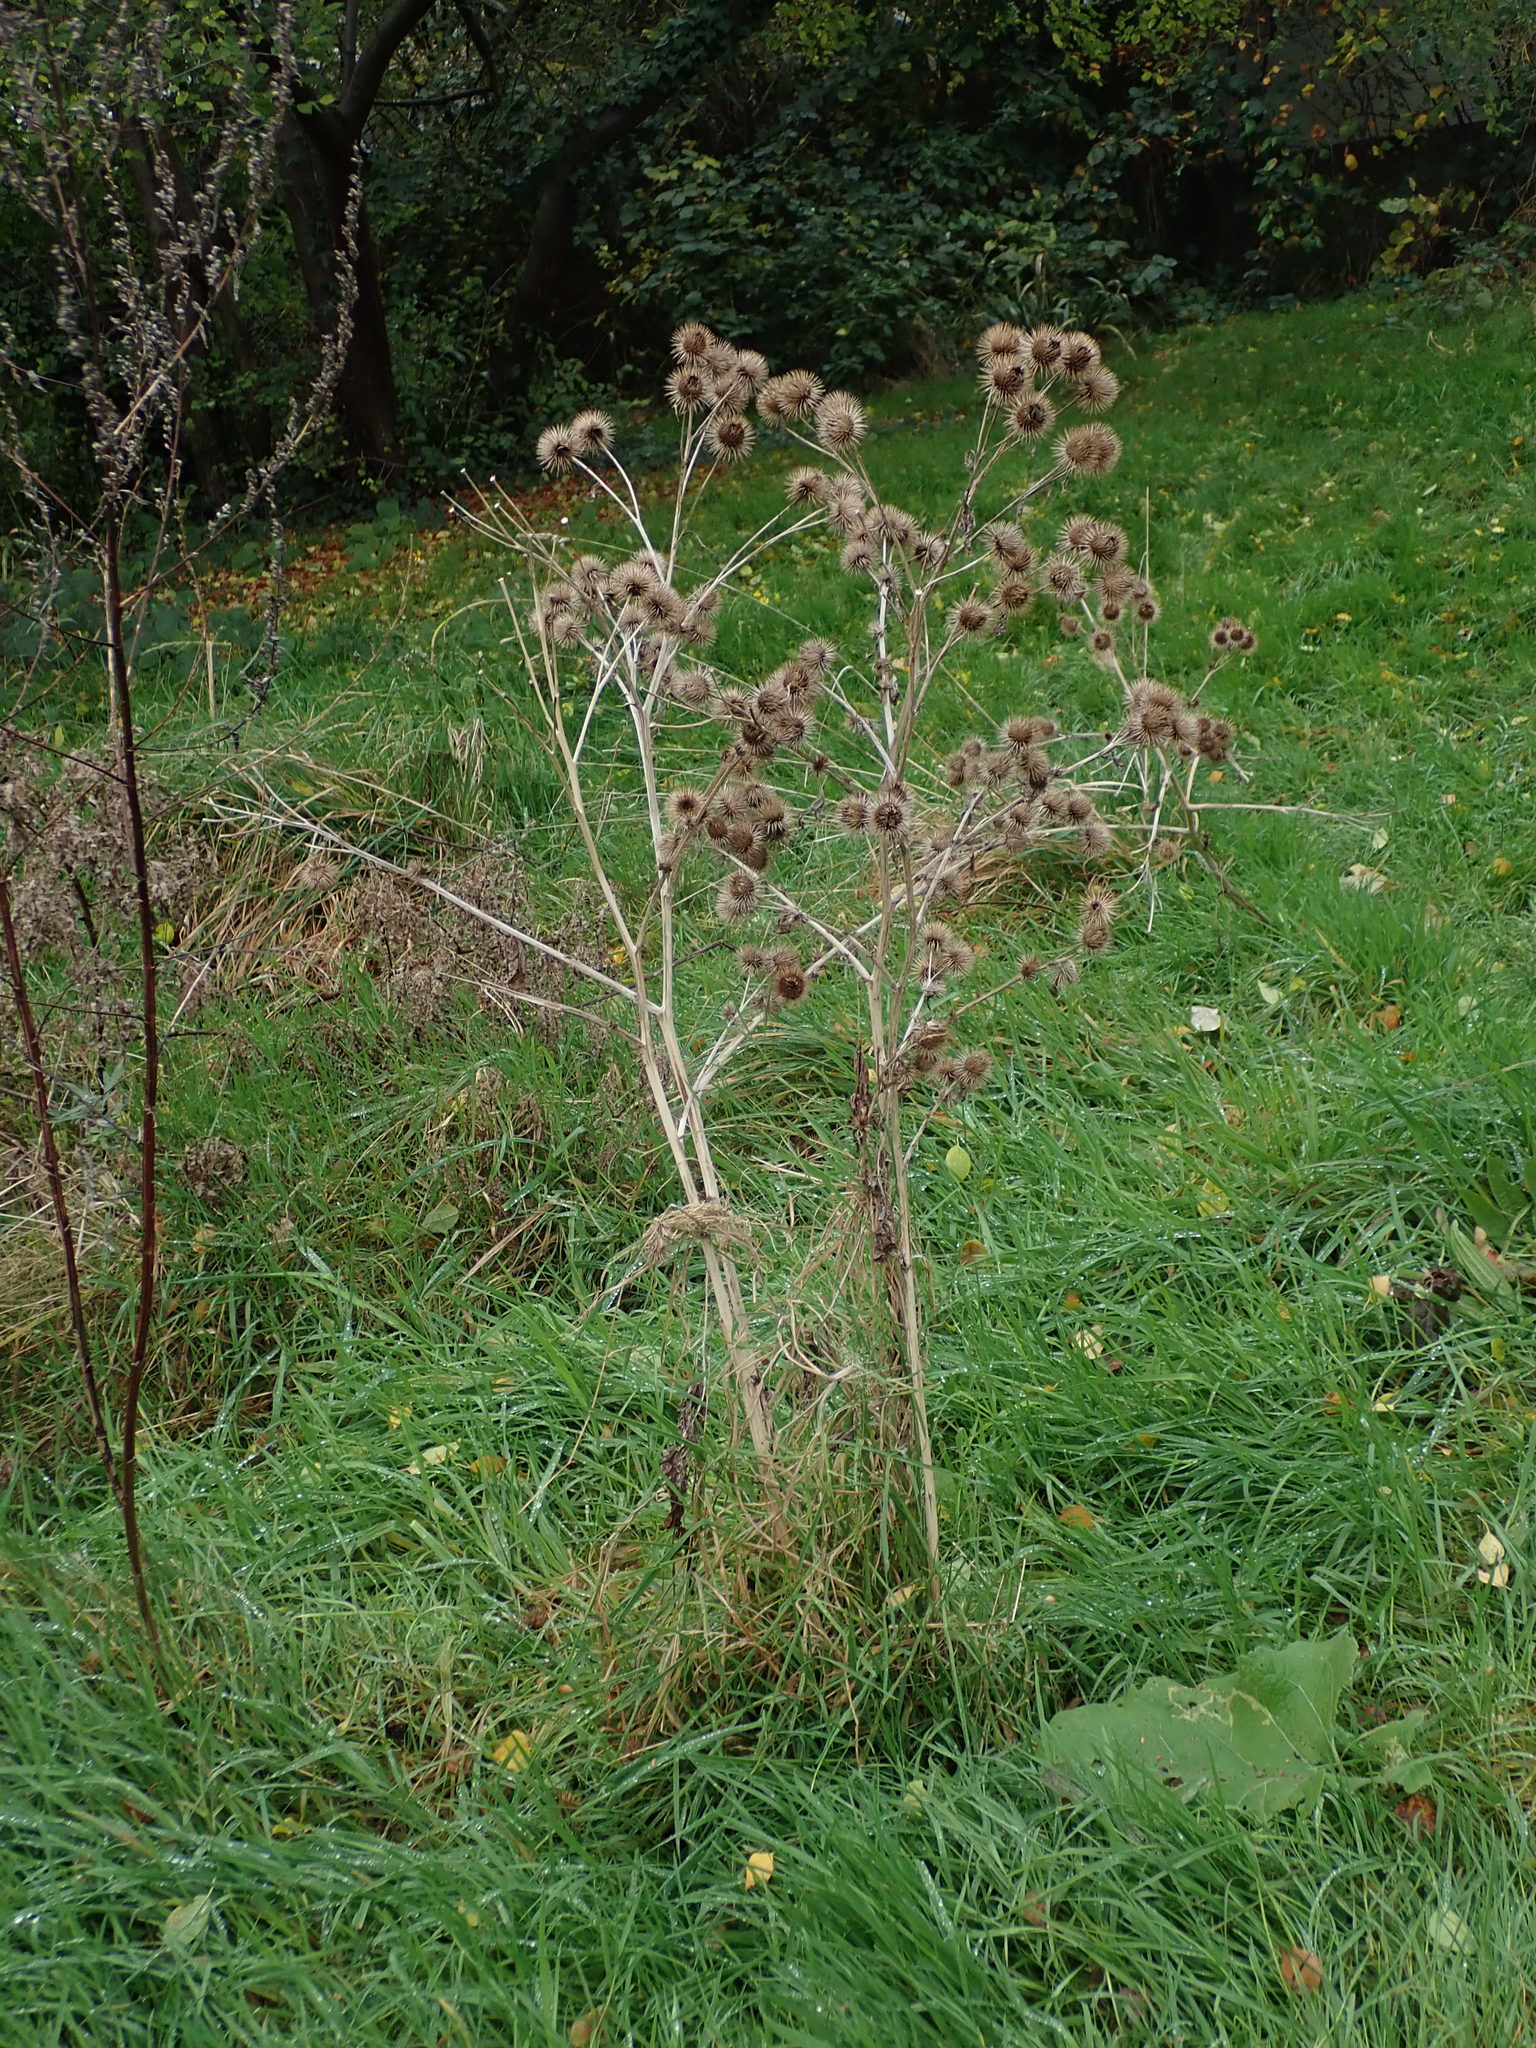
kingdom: Plantae
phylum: Tracheophyta
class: Magnoliopsida
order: Asterales
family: Asteraceae
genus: Arctium
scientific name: Arctium lappa
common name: Greater burdock
